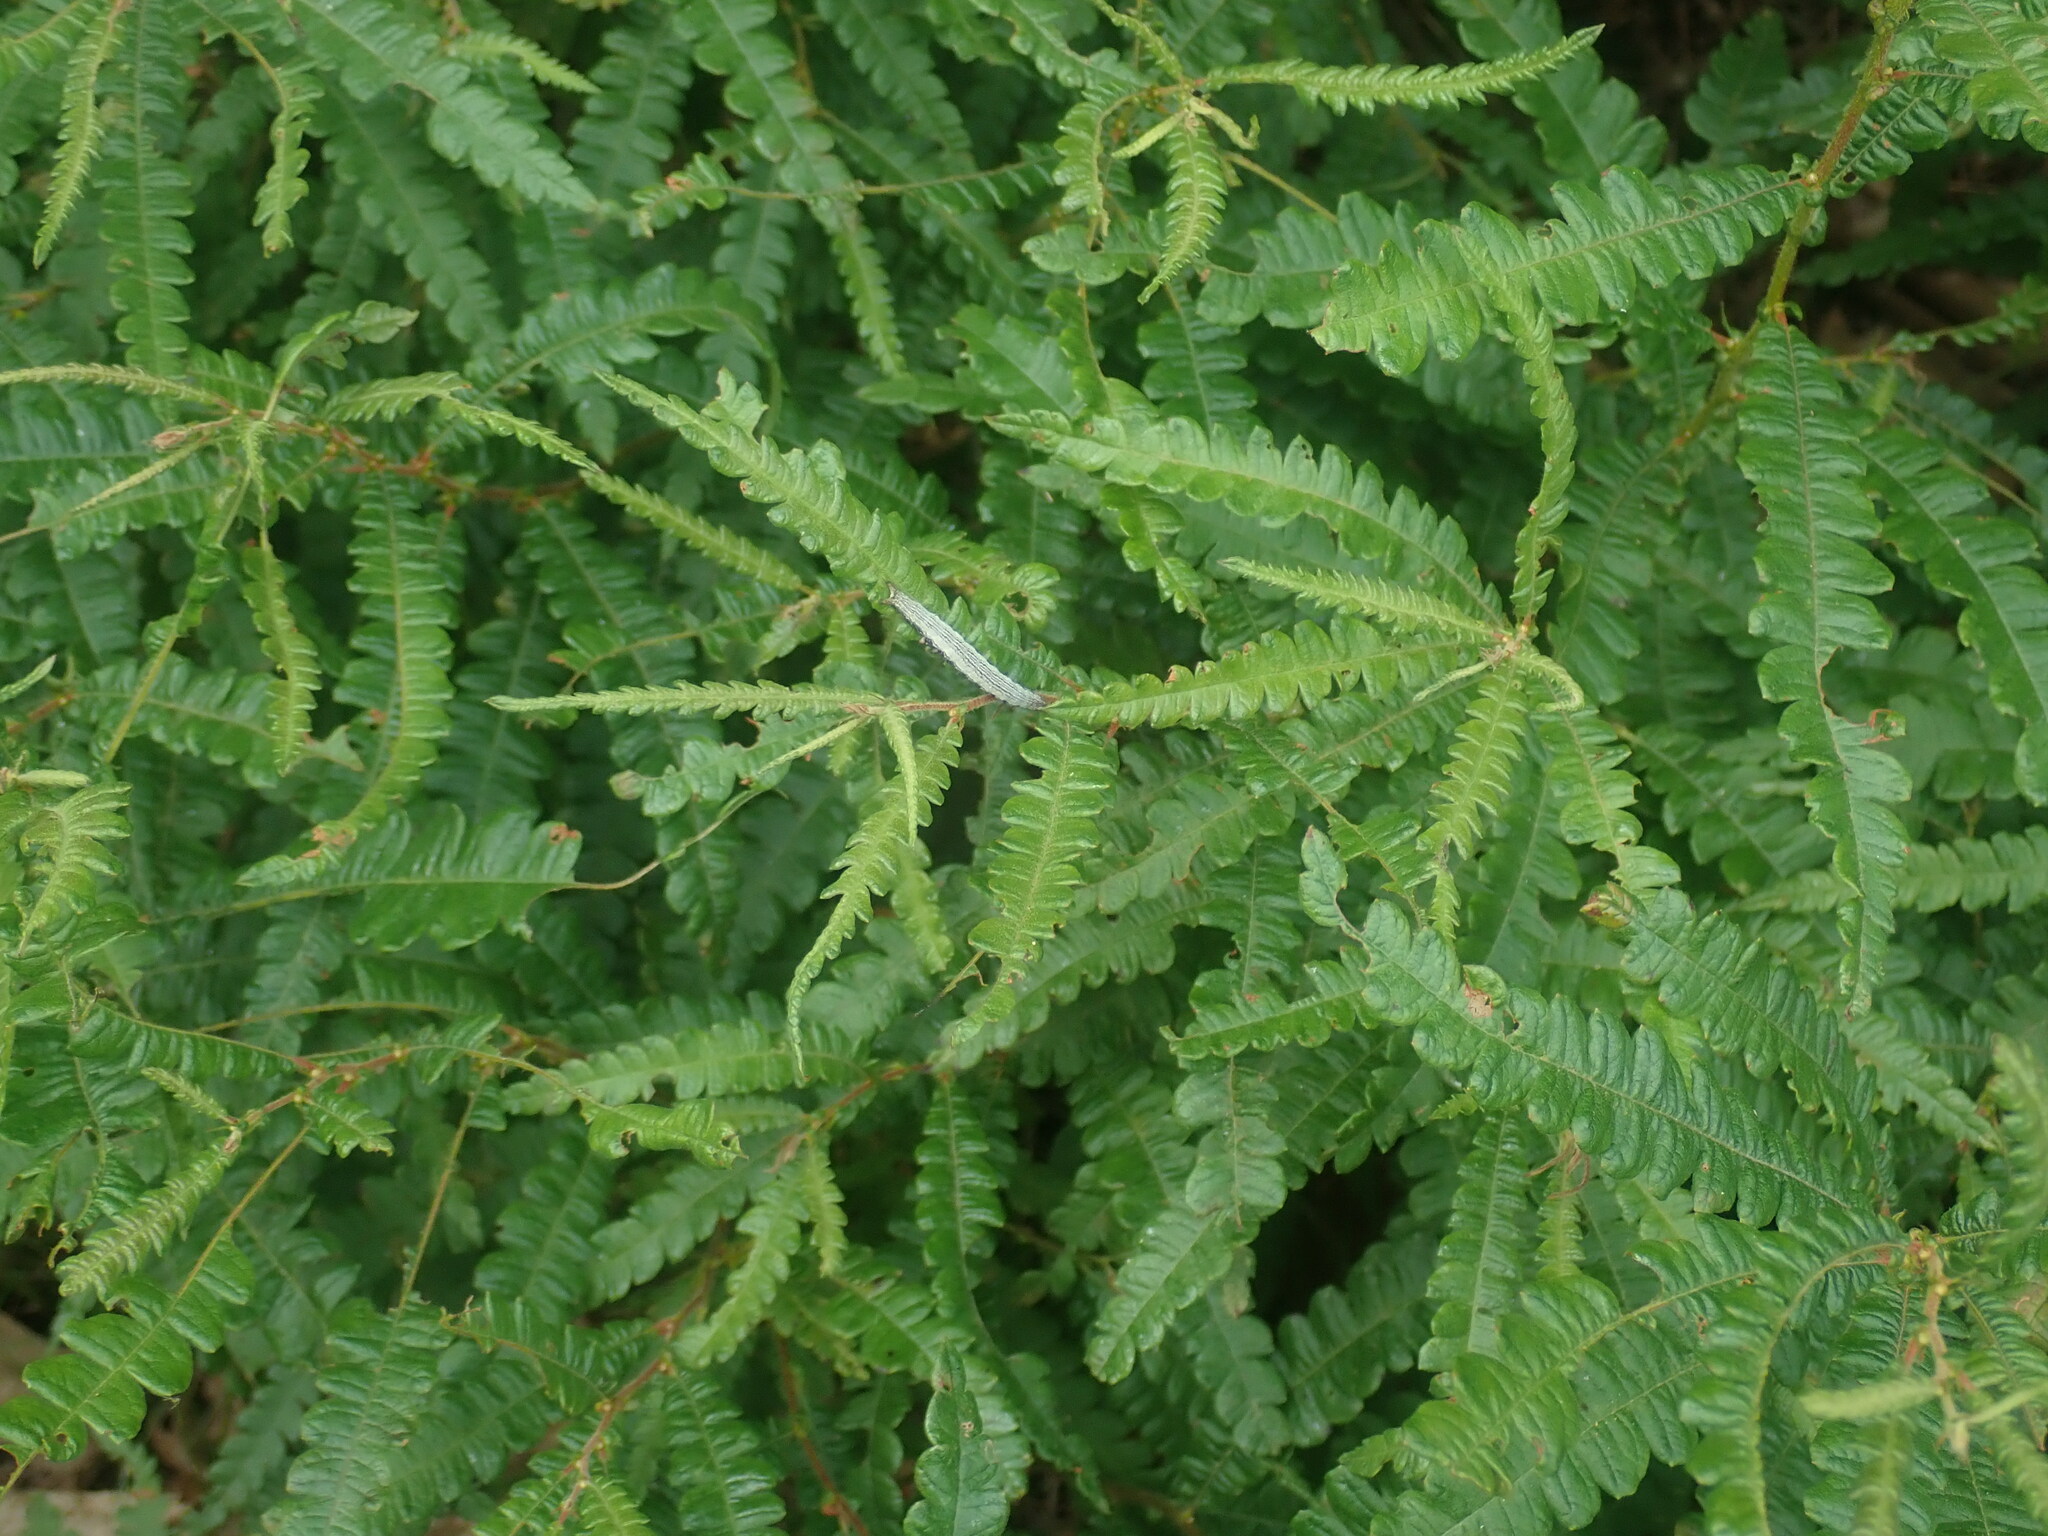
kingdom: Plantae
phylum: Tracheophyta
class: Magnoliopsida
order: Fagales
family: Myricaceae
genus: Comptonia
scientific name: Comptonia peregrina
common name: Sweet-fern
